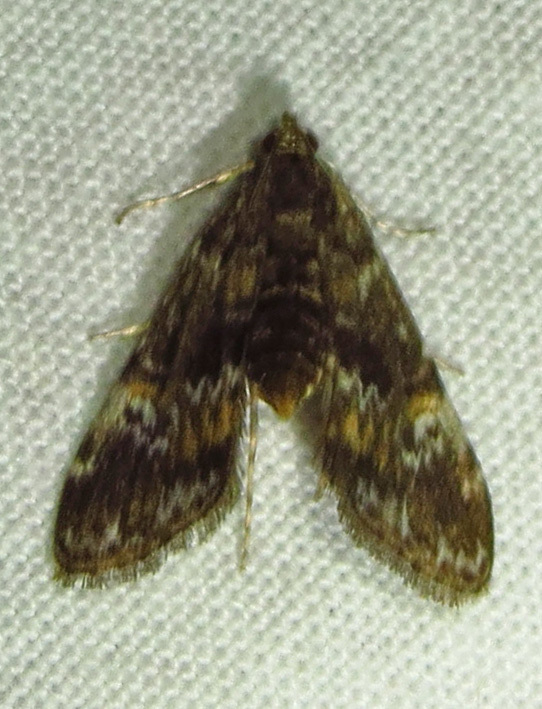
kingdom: Animalia
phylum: Arthropoda
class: Insecta
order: Lepidoptera
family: Crambidae
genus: Elophila
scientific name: Elophila obliteralis
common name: Waterlily leafcutter moth
